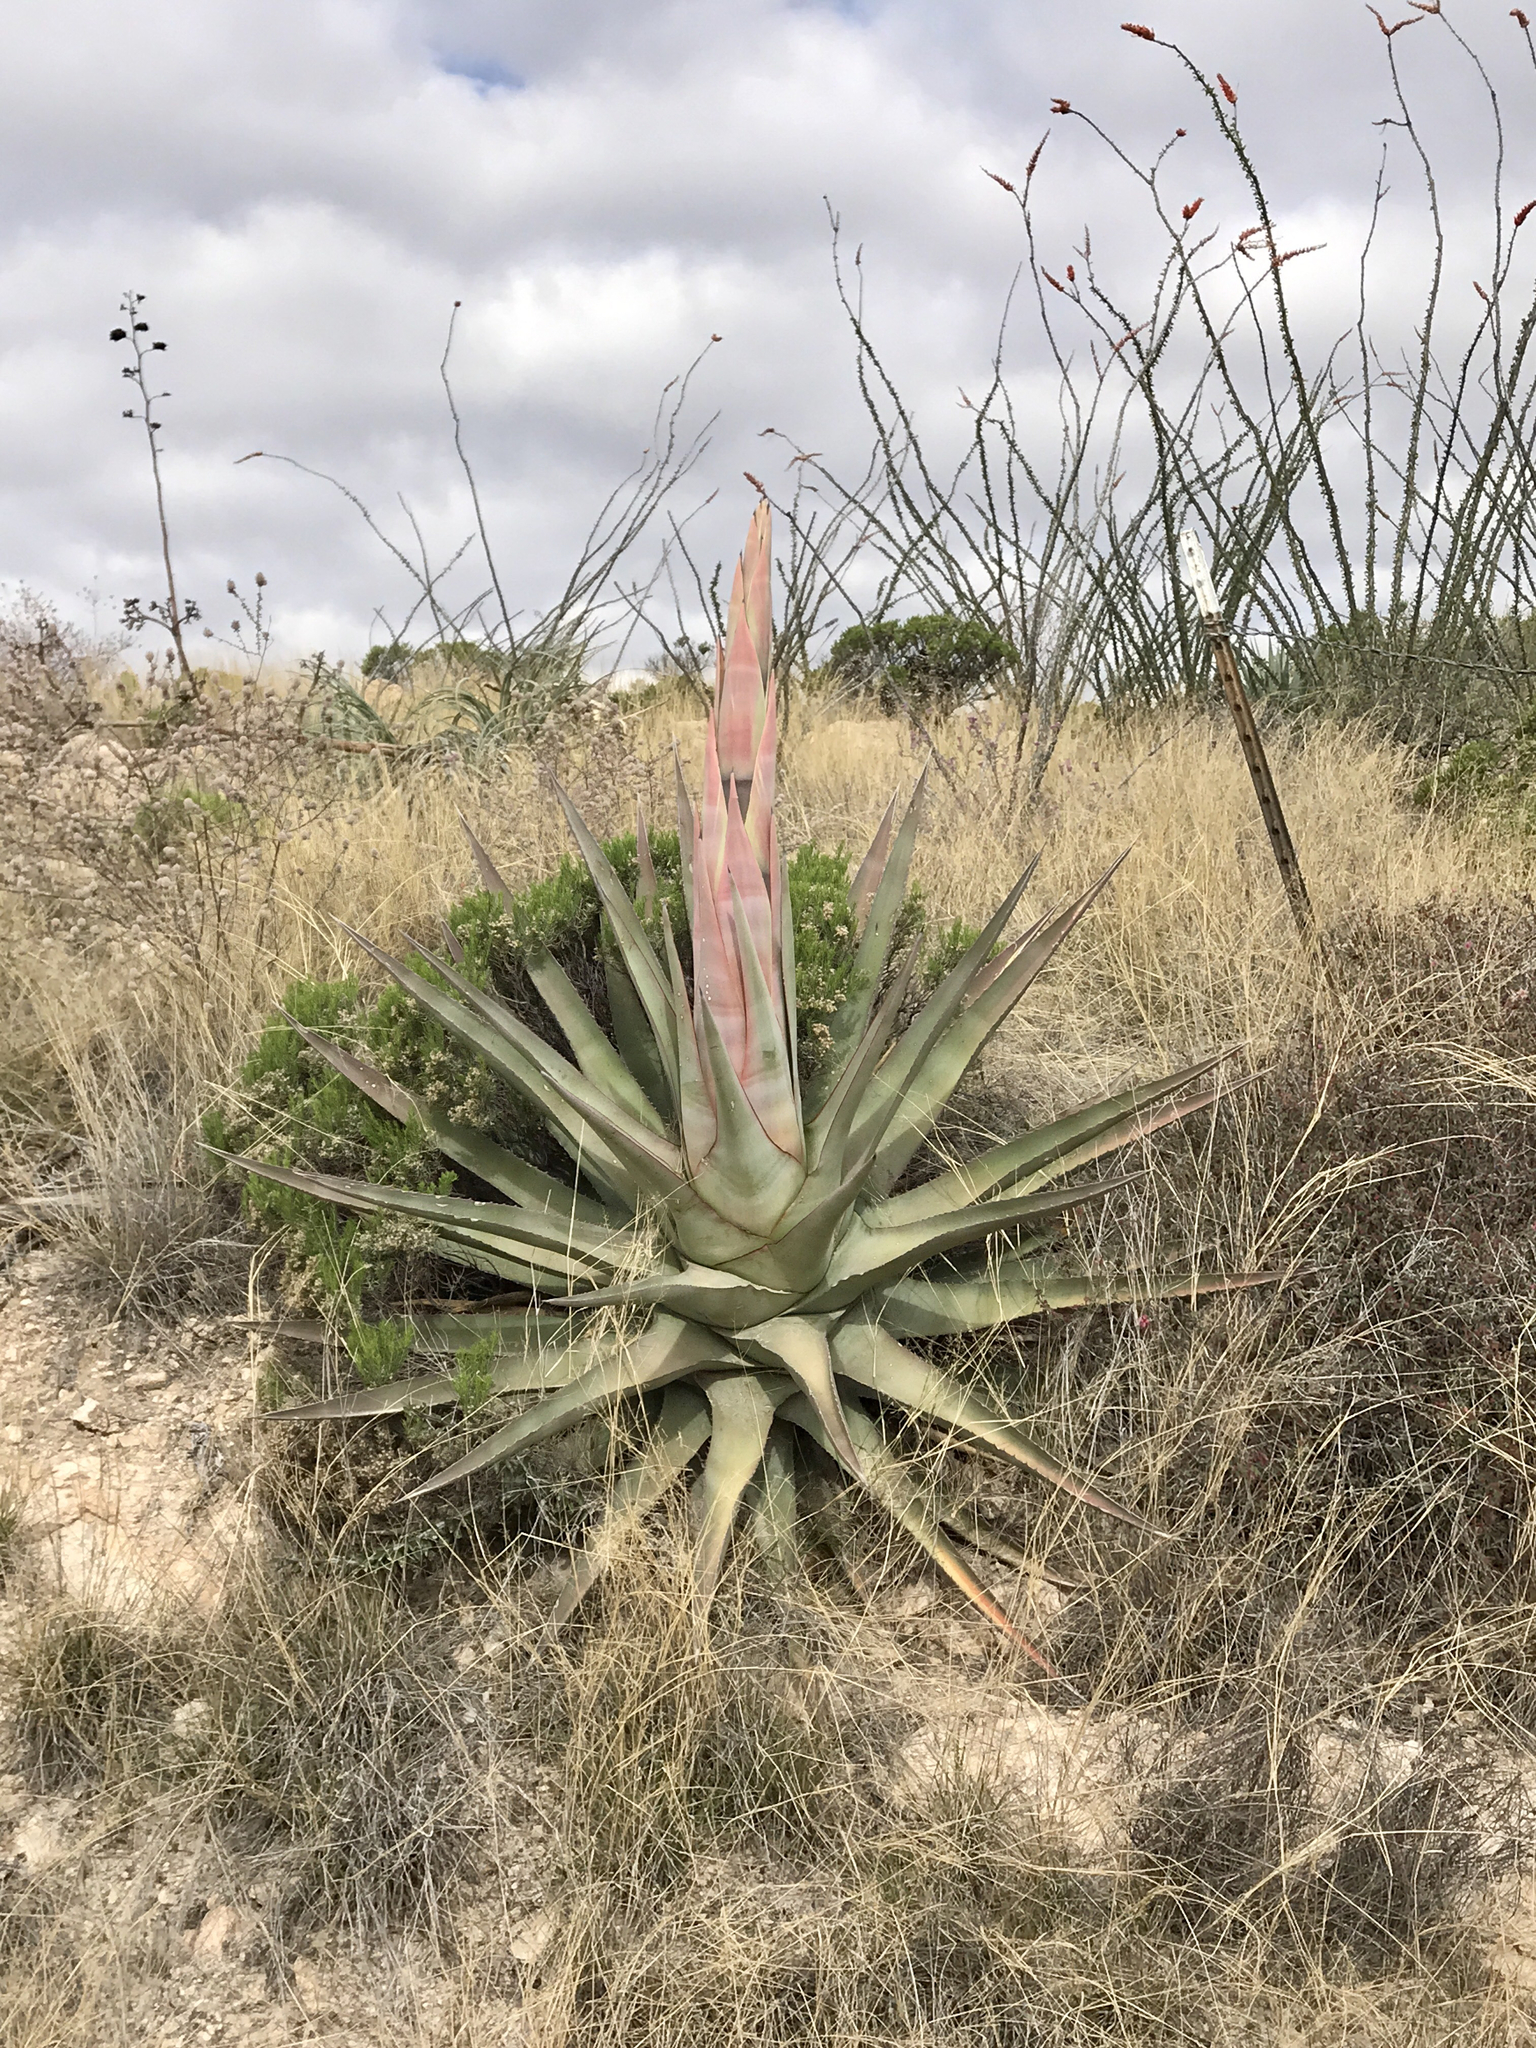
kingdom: Plantae
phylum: Tracheophyta
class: Liliopsida
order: Asparagales
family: Asparagaceae
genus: Agave
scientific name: Agave palmeri
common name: Palmer agave
